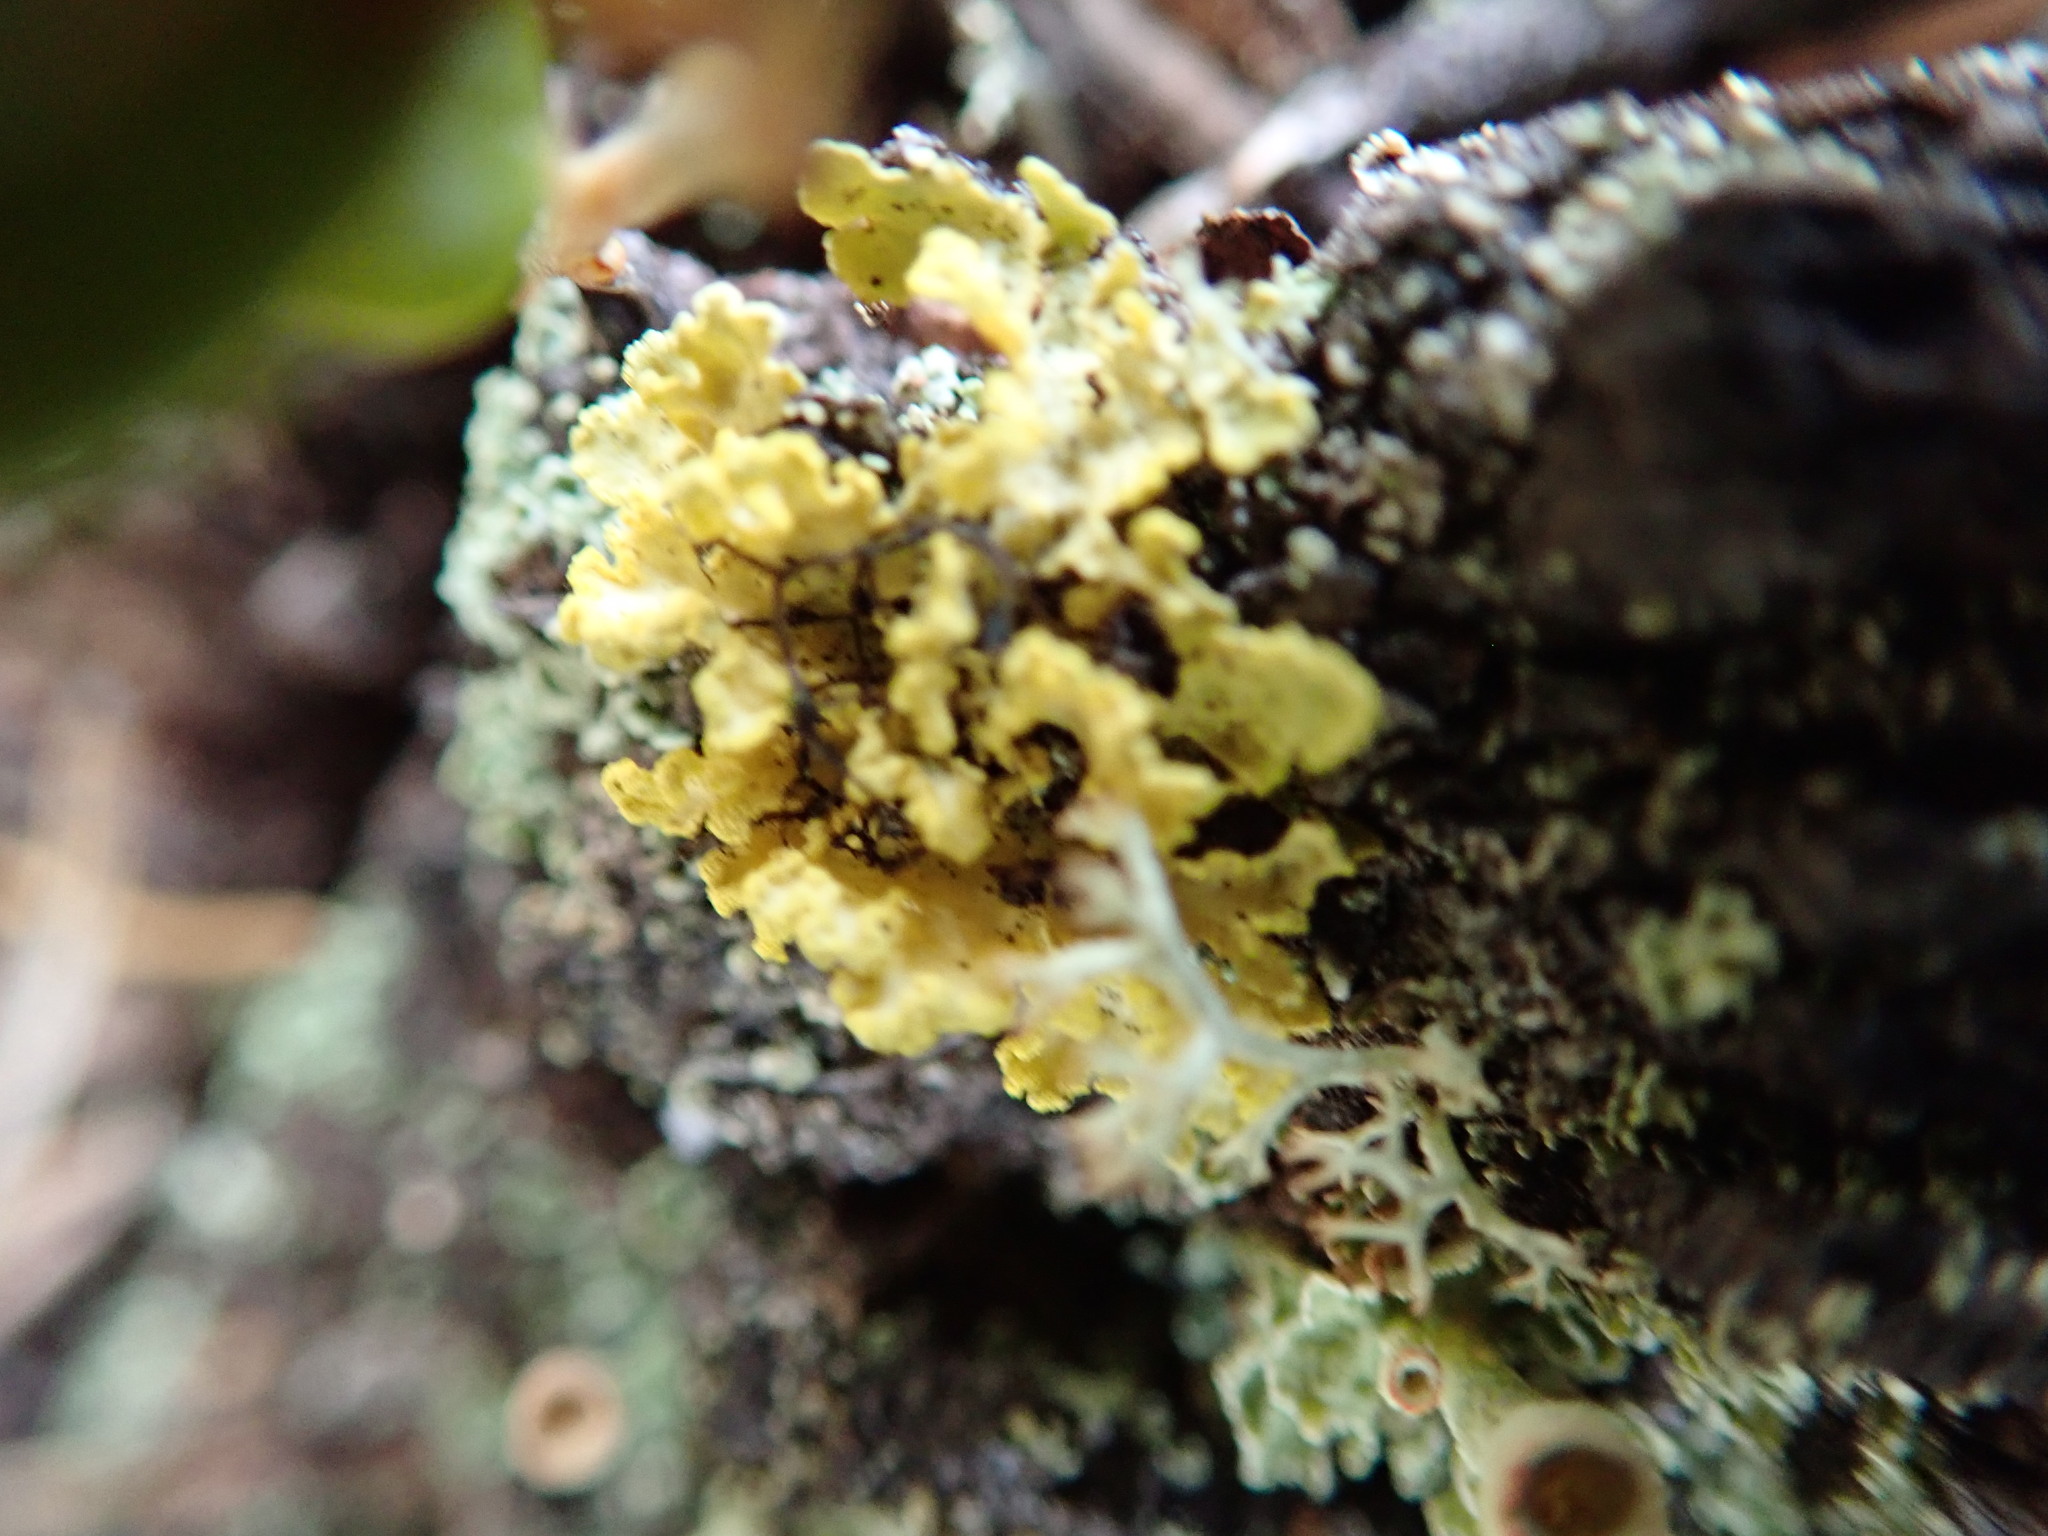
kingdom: Fungi
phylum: Ascomycota
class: Lecanoromycetes
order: Lecanorales
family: Parmeliaceae
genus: Vulpicida
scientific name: Vulpicida pinastri
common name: Powdered sunshine lichen
